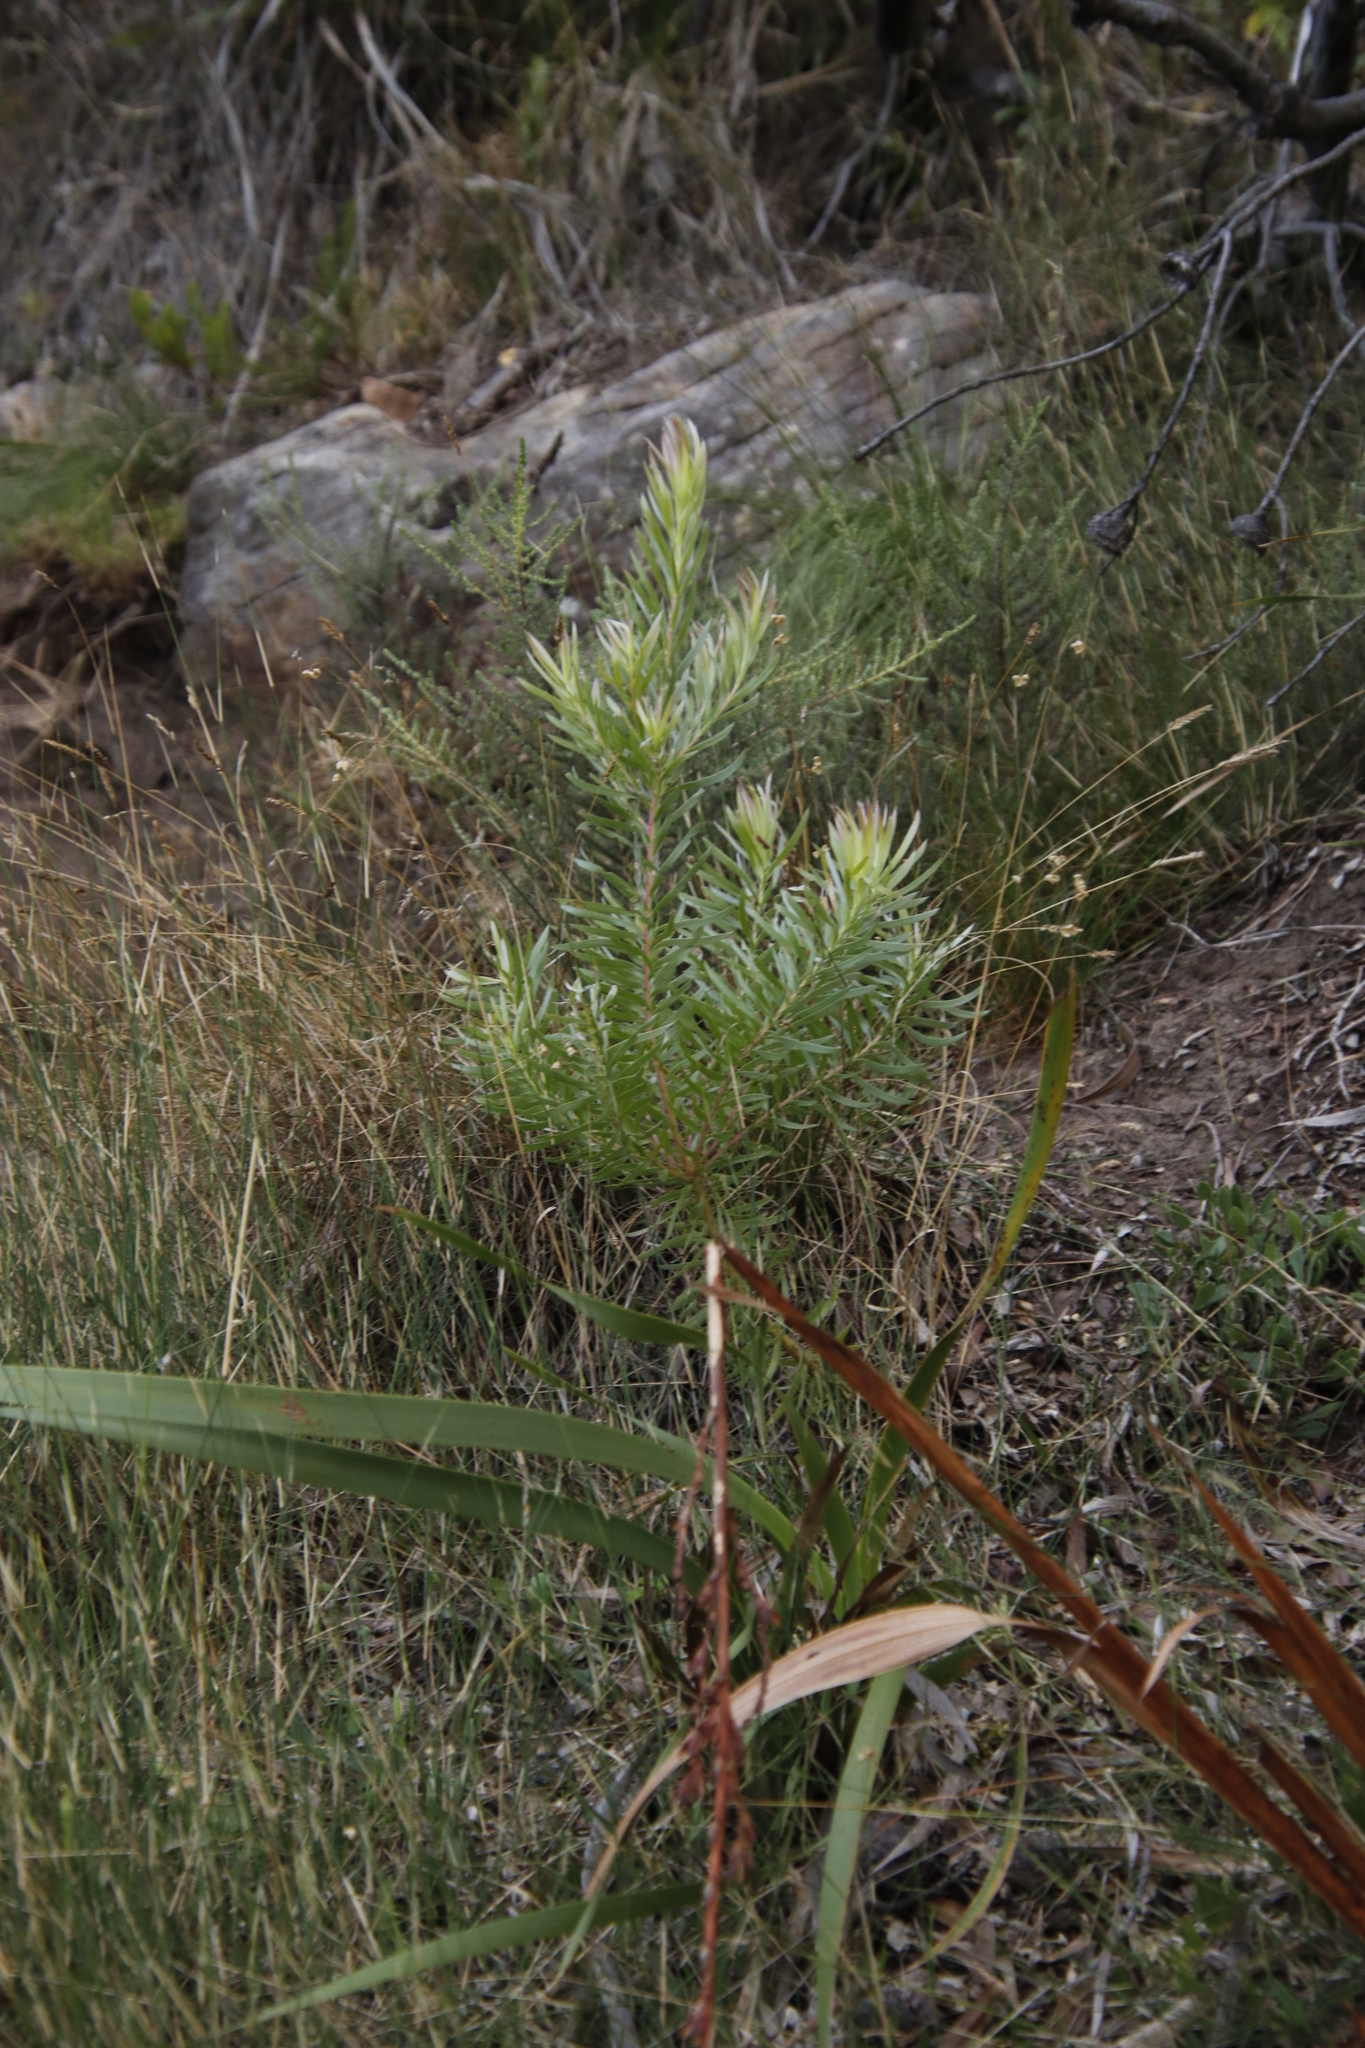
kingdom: Plantae
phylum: Tracheophyta
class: Magnoliopsida
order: Proteales
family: Proteaceae
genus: Leucadendron
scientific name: Leucadendron xanthoconus
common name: Sickle-leaf conebush
